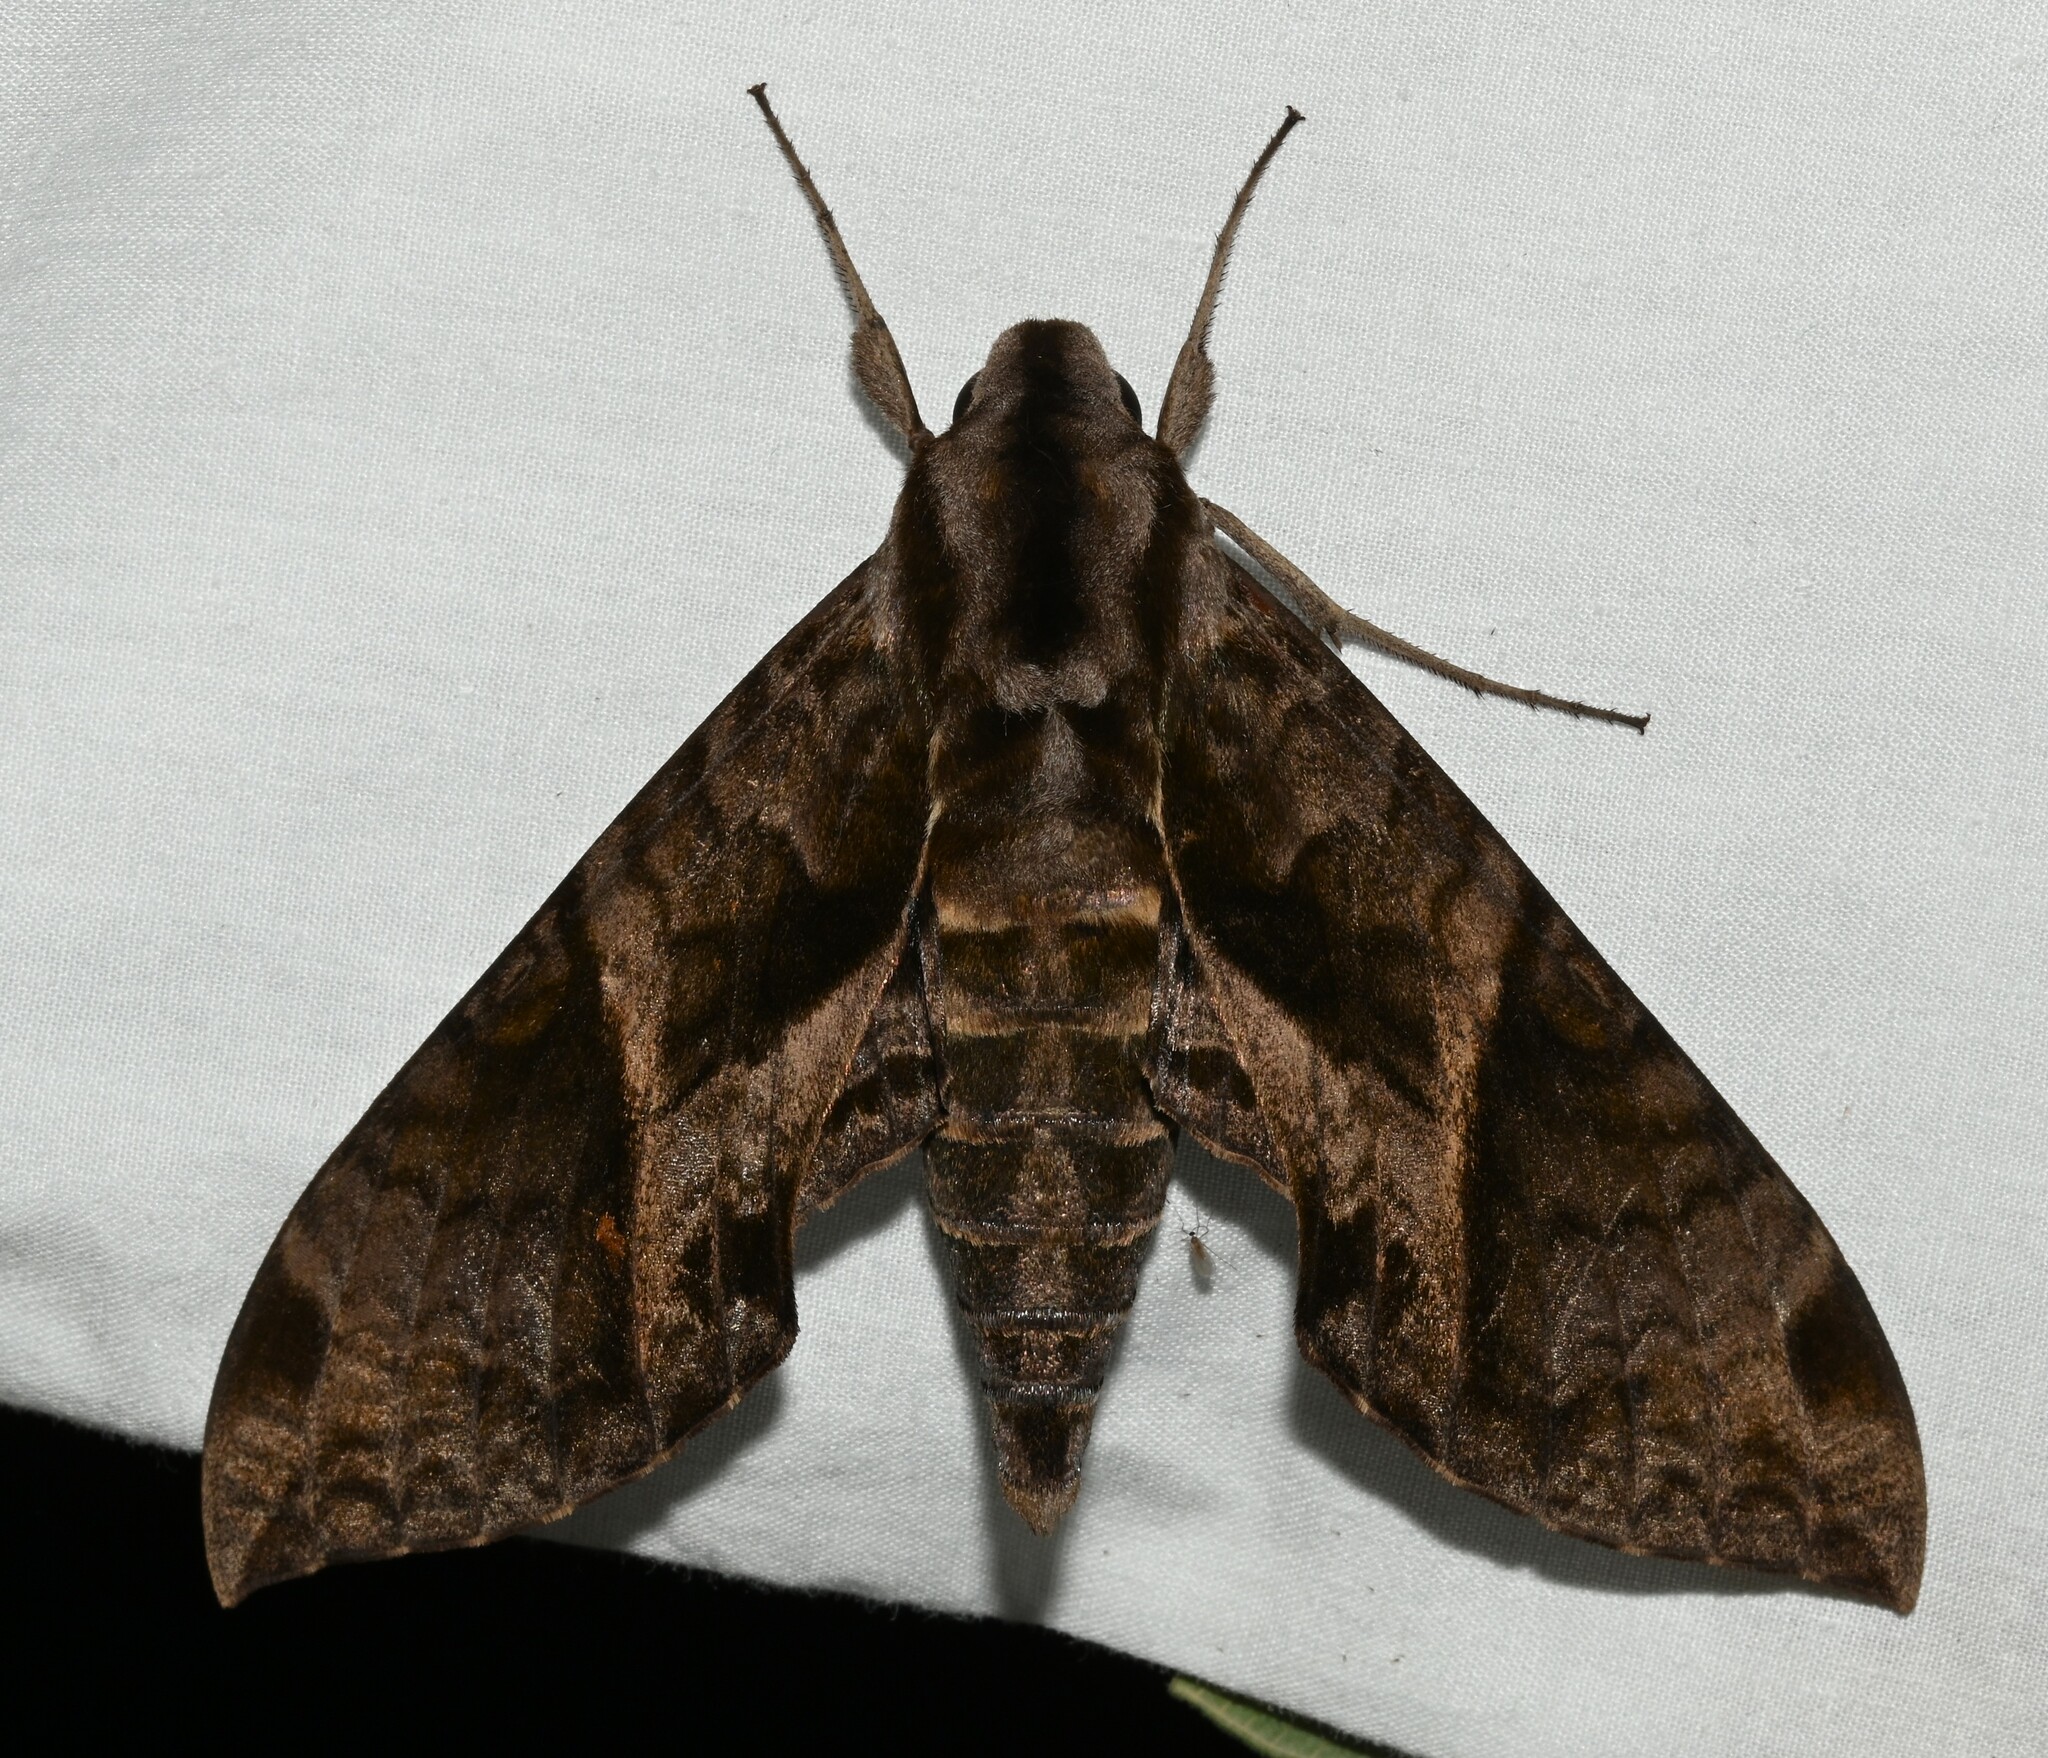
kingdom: Animalia
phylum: Arthropoda
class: Insecta
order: Lepidoptera
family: Sphingidae
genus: Eumorpha
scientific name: Eumorpha triangulum
